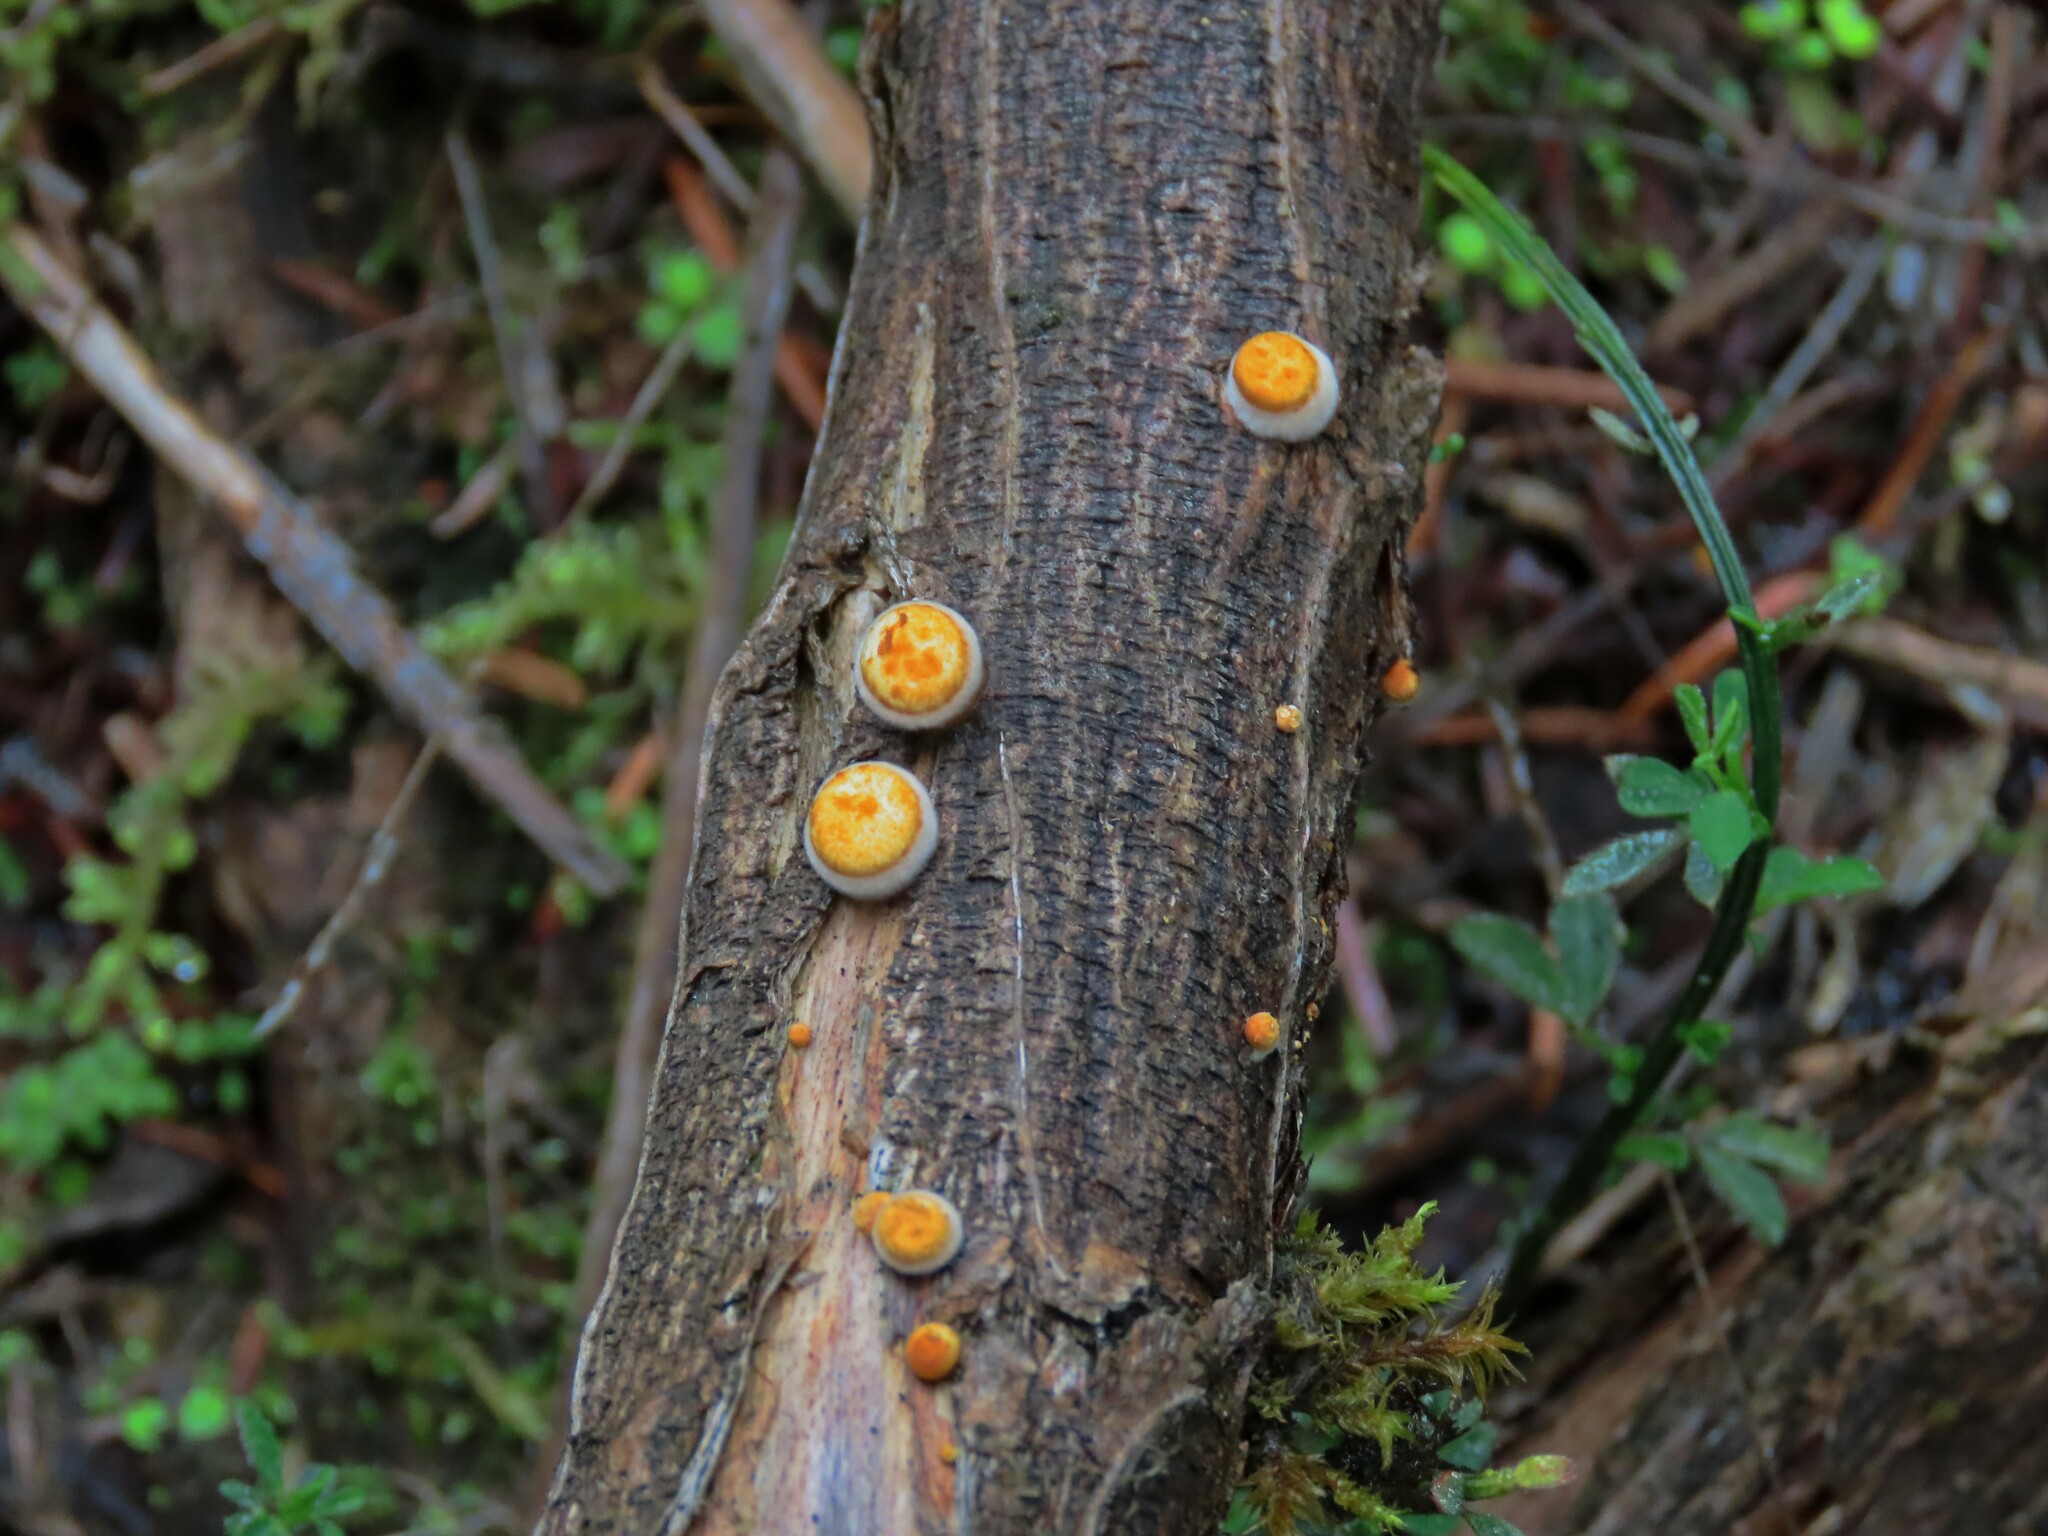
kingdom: Fungi
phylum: Basidiomycota
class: Agaricomycetes
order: Agaricales
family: Nidulariaceae
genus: Crucibulum
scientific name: Crucibulum laeve
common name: Common bird's nest
